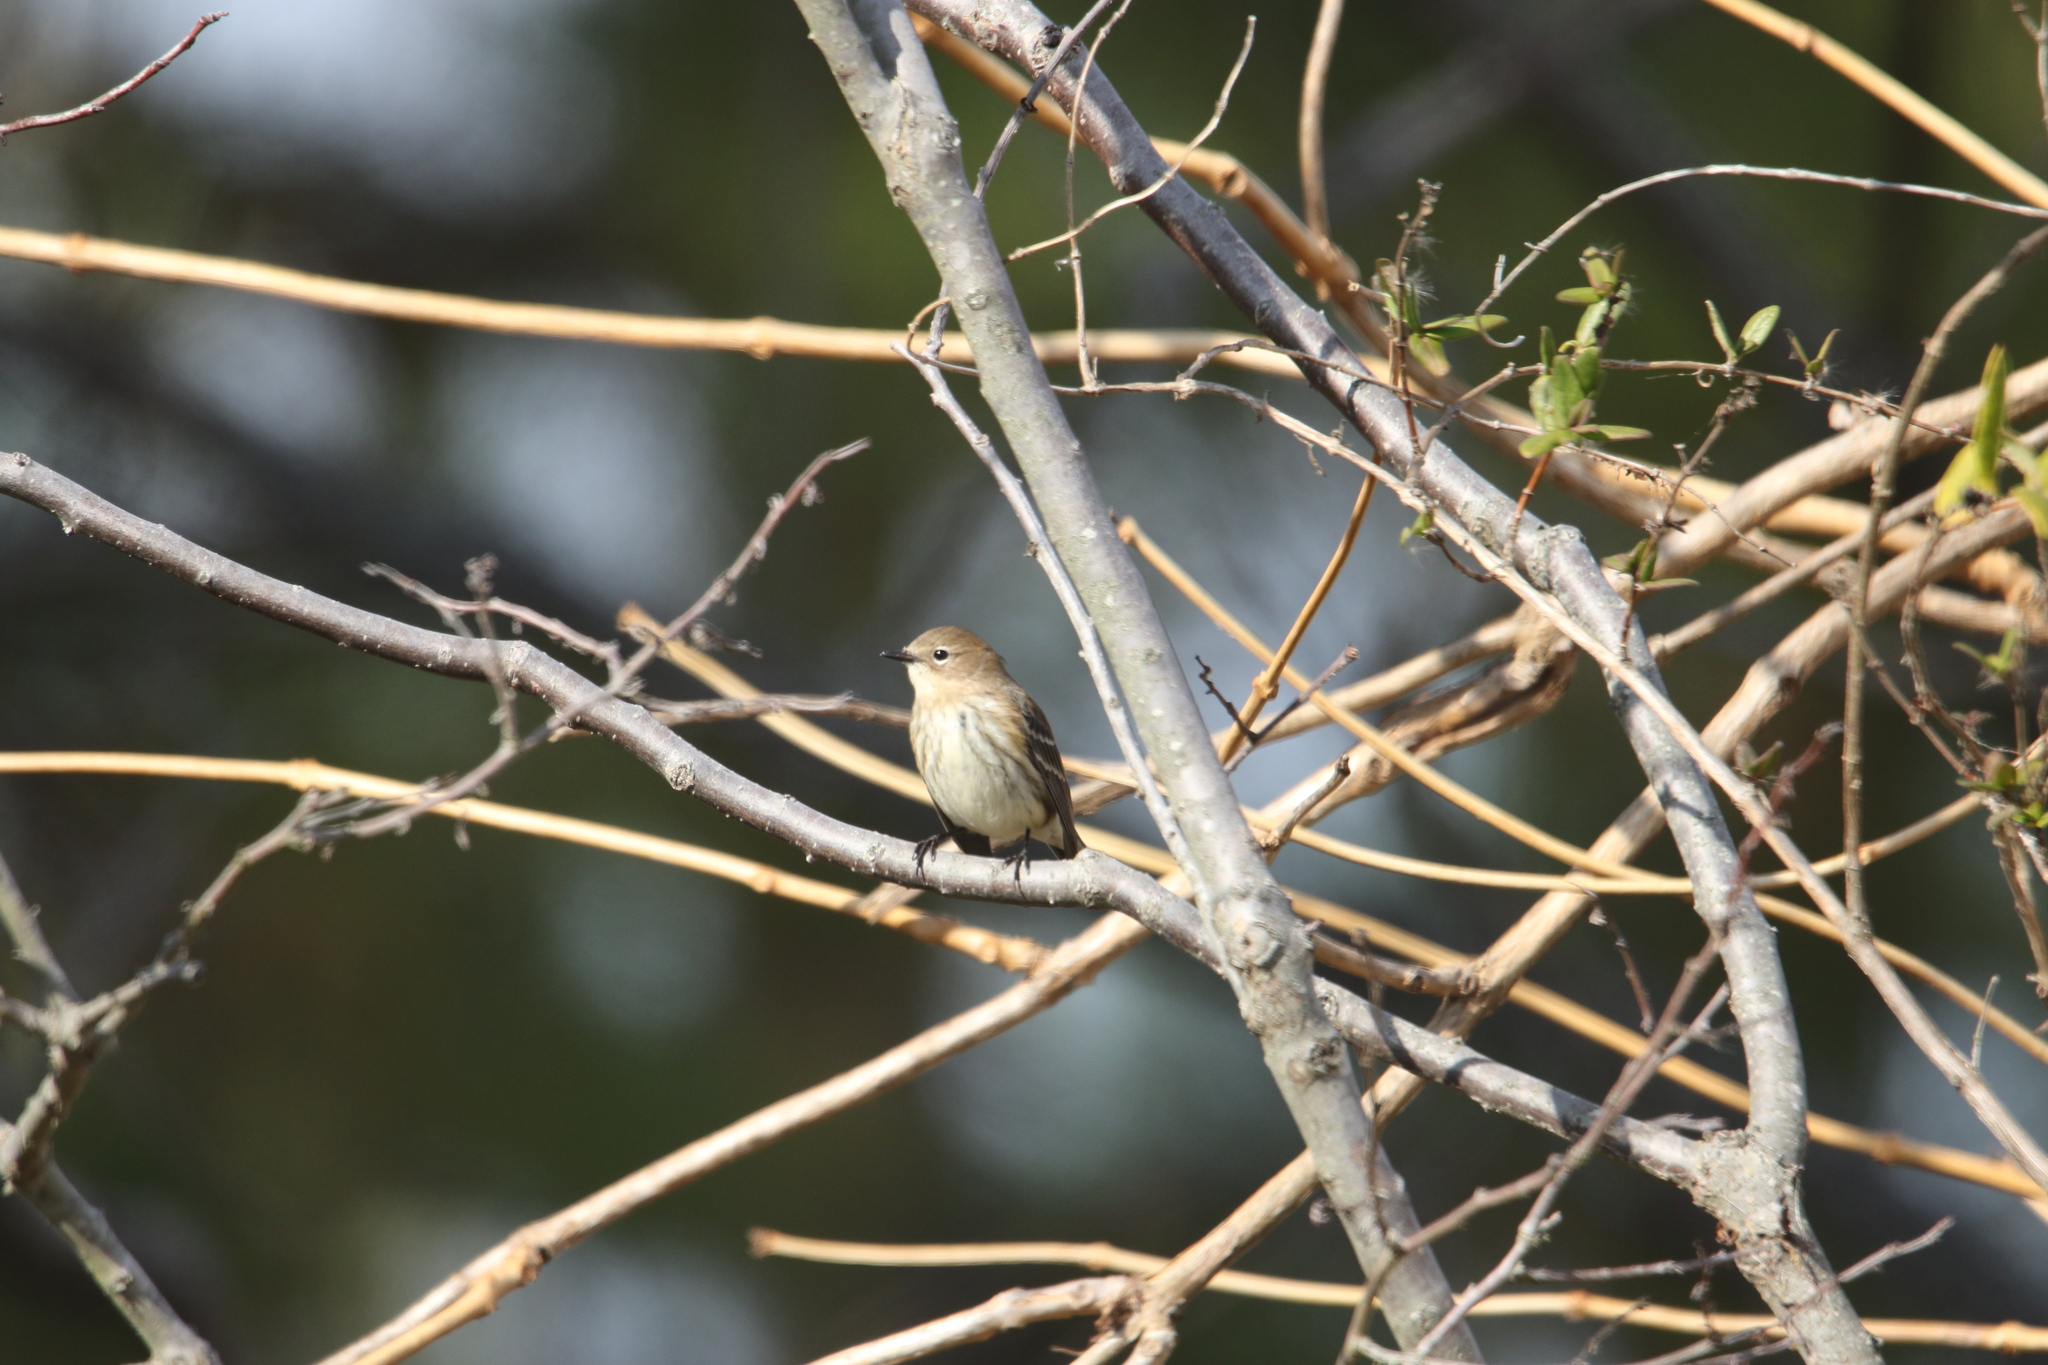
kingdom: Animalia
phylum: Chordata
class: Aves
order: Passeriformes
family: Parulidae
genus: Setophaga
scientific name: Setophaga coronata
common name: Myrtle warbler
